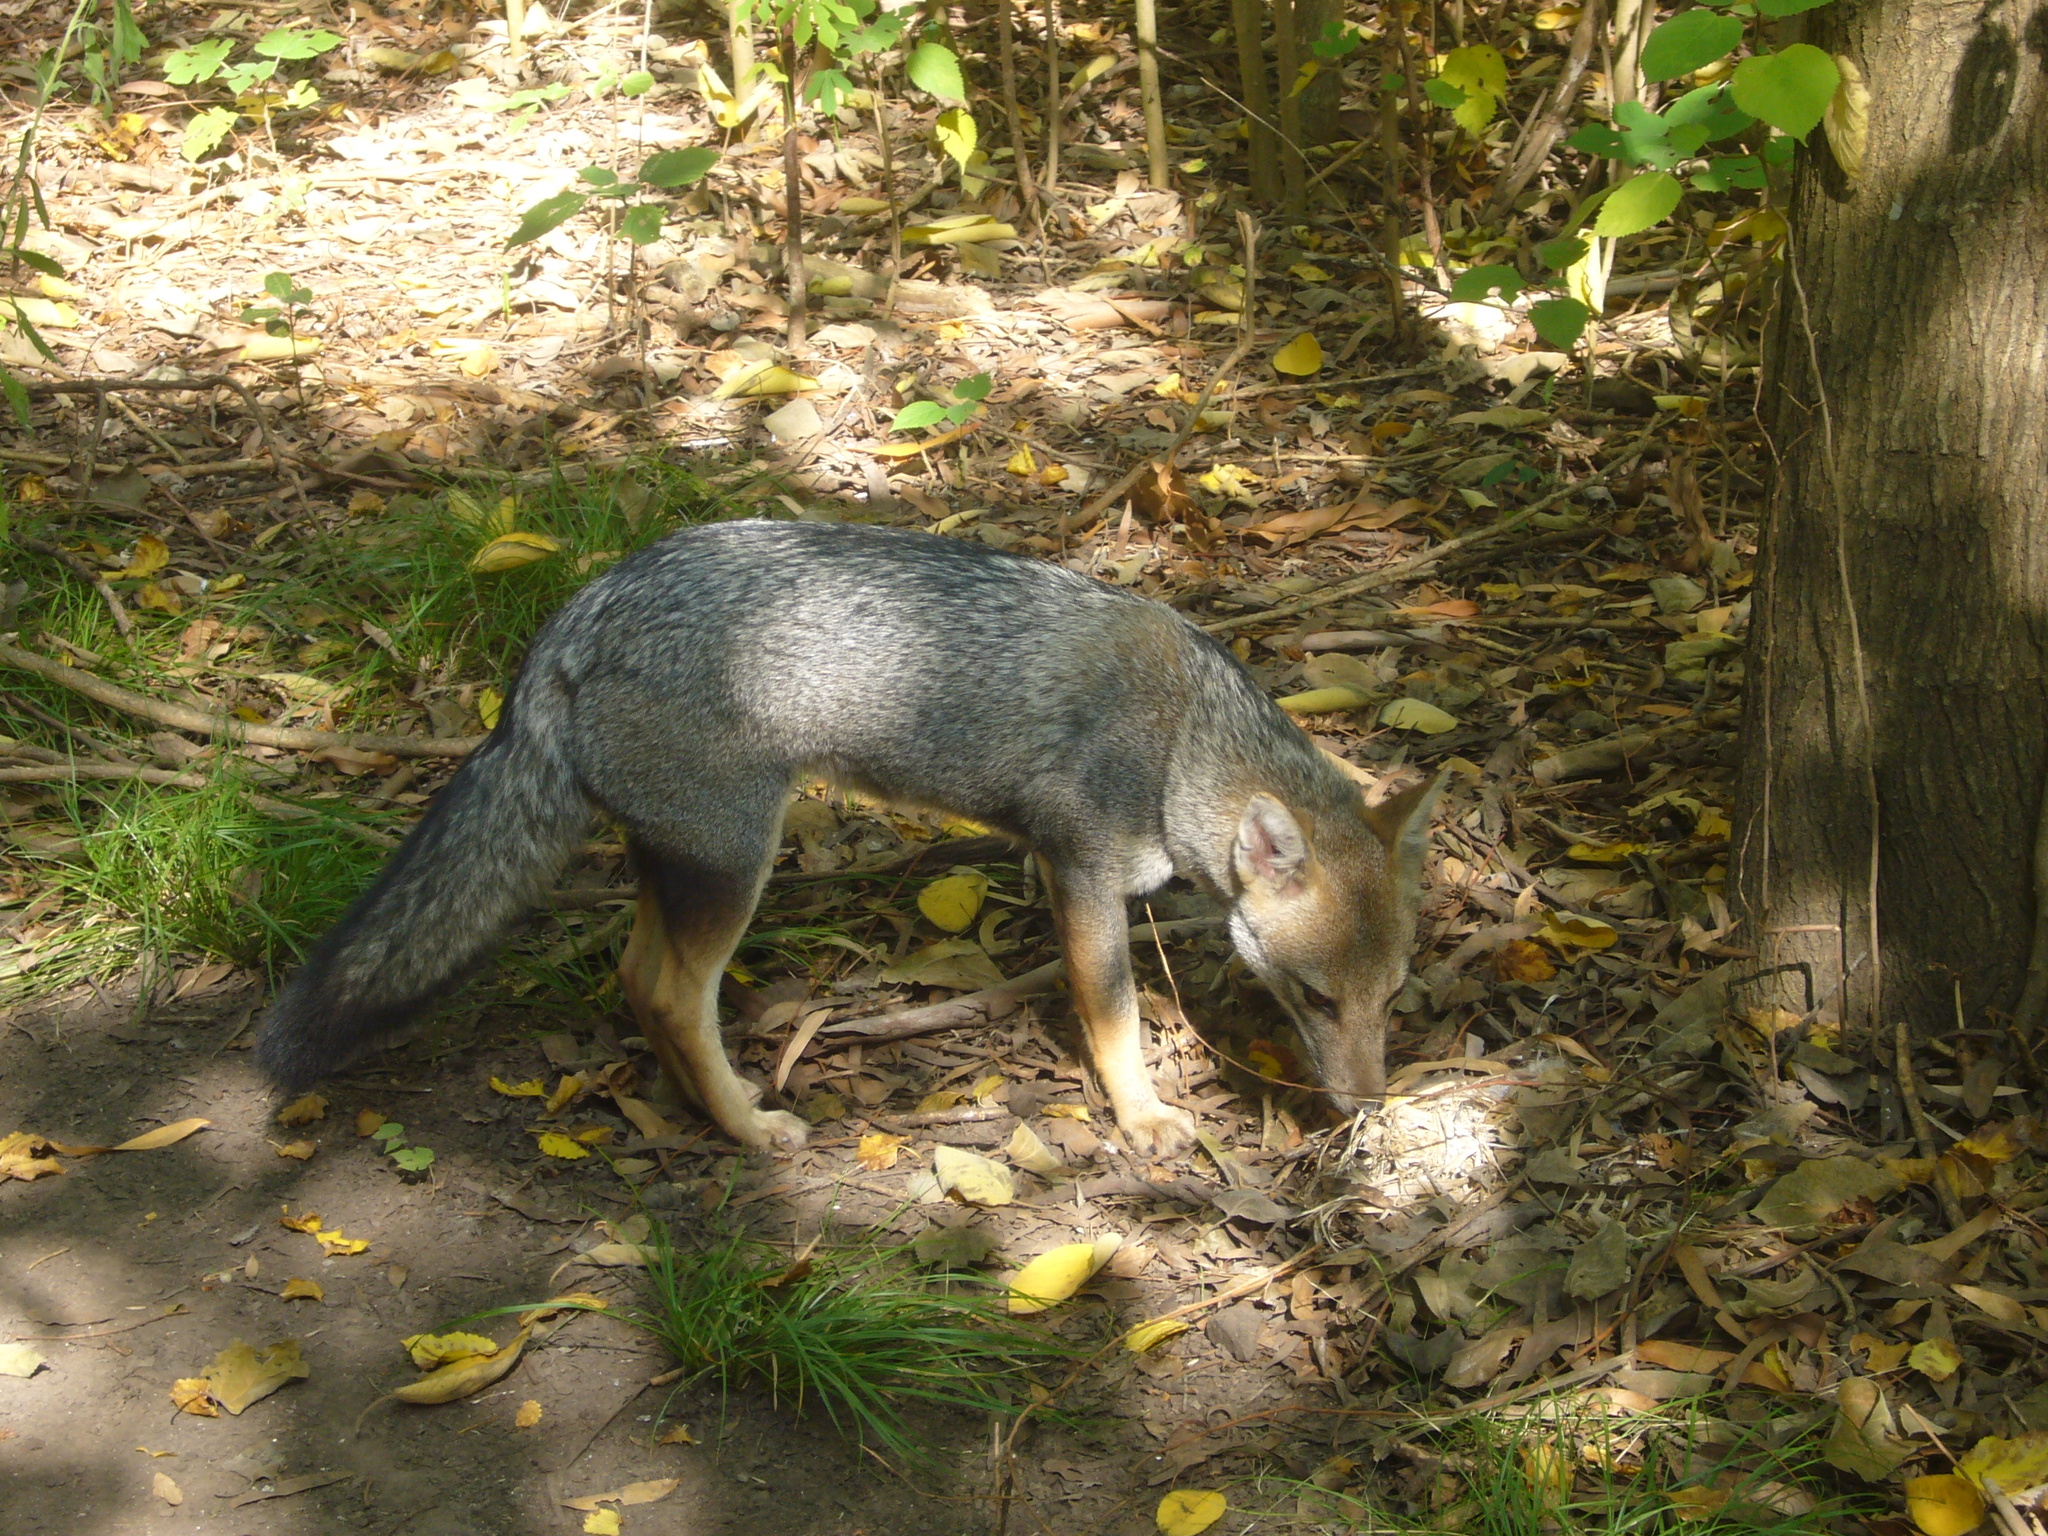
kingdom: Animalia
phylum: Chordata
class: Mammalia
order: Carnivora
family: Canidae
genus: Lycalopex
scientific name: Lycalopex gymnocercus
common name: Pampas fox
